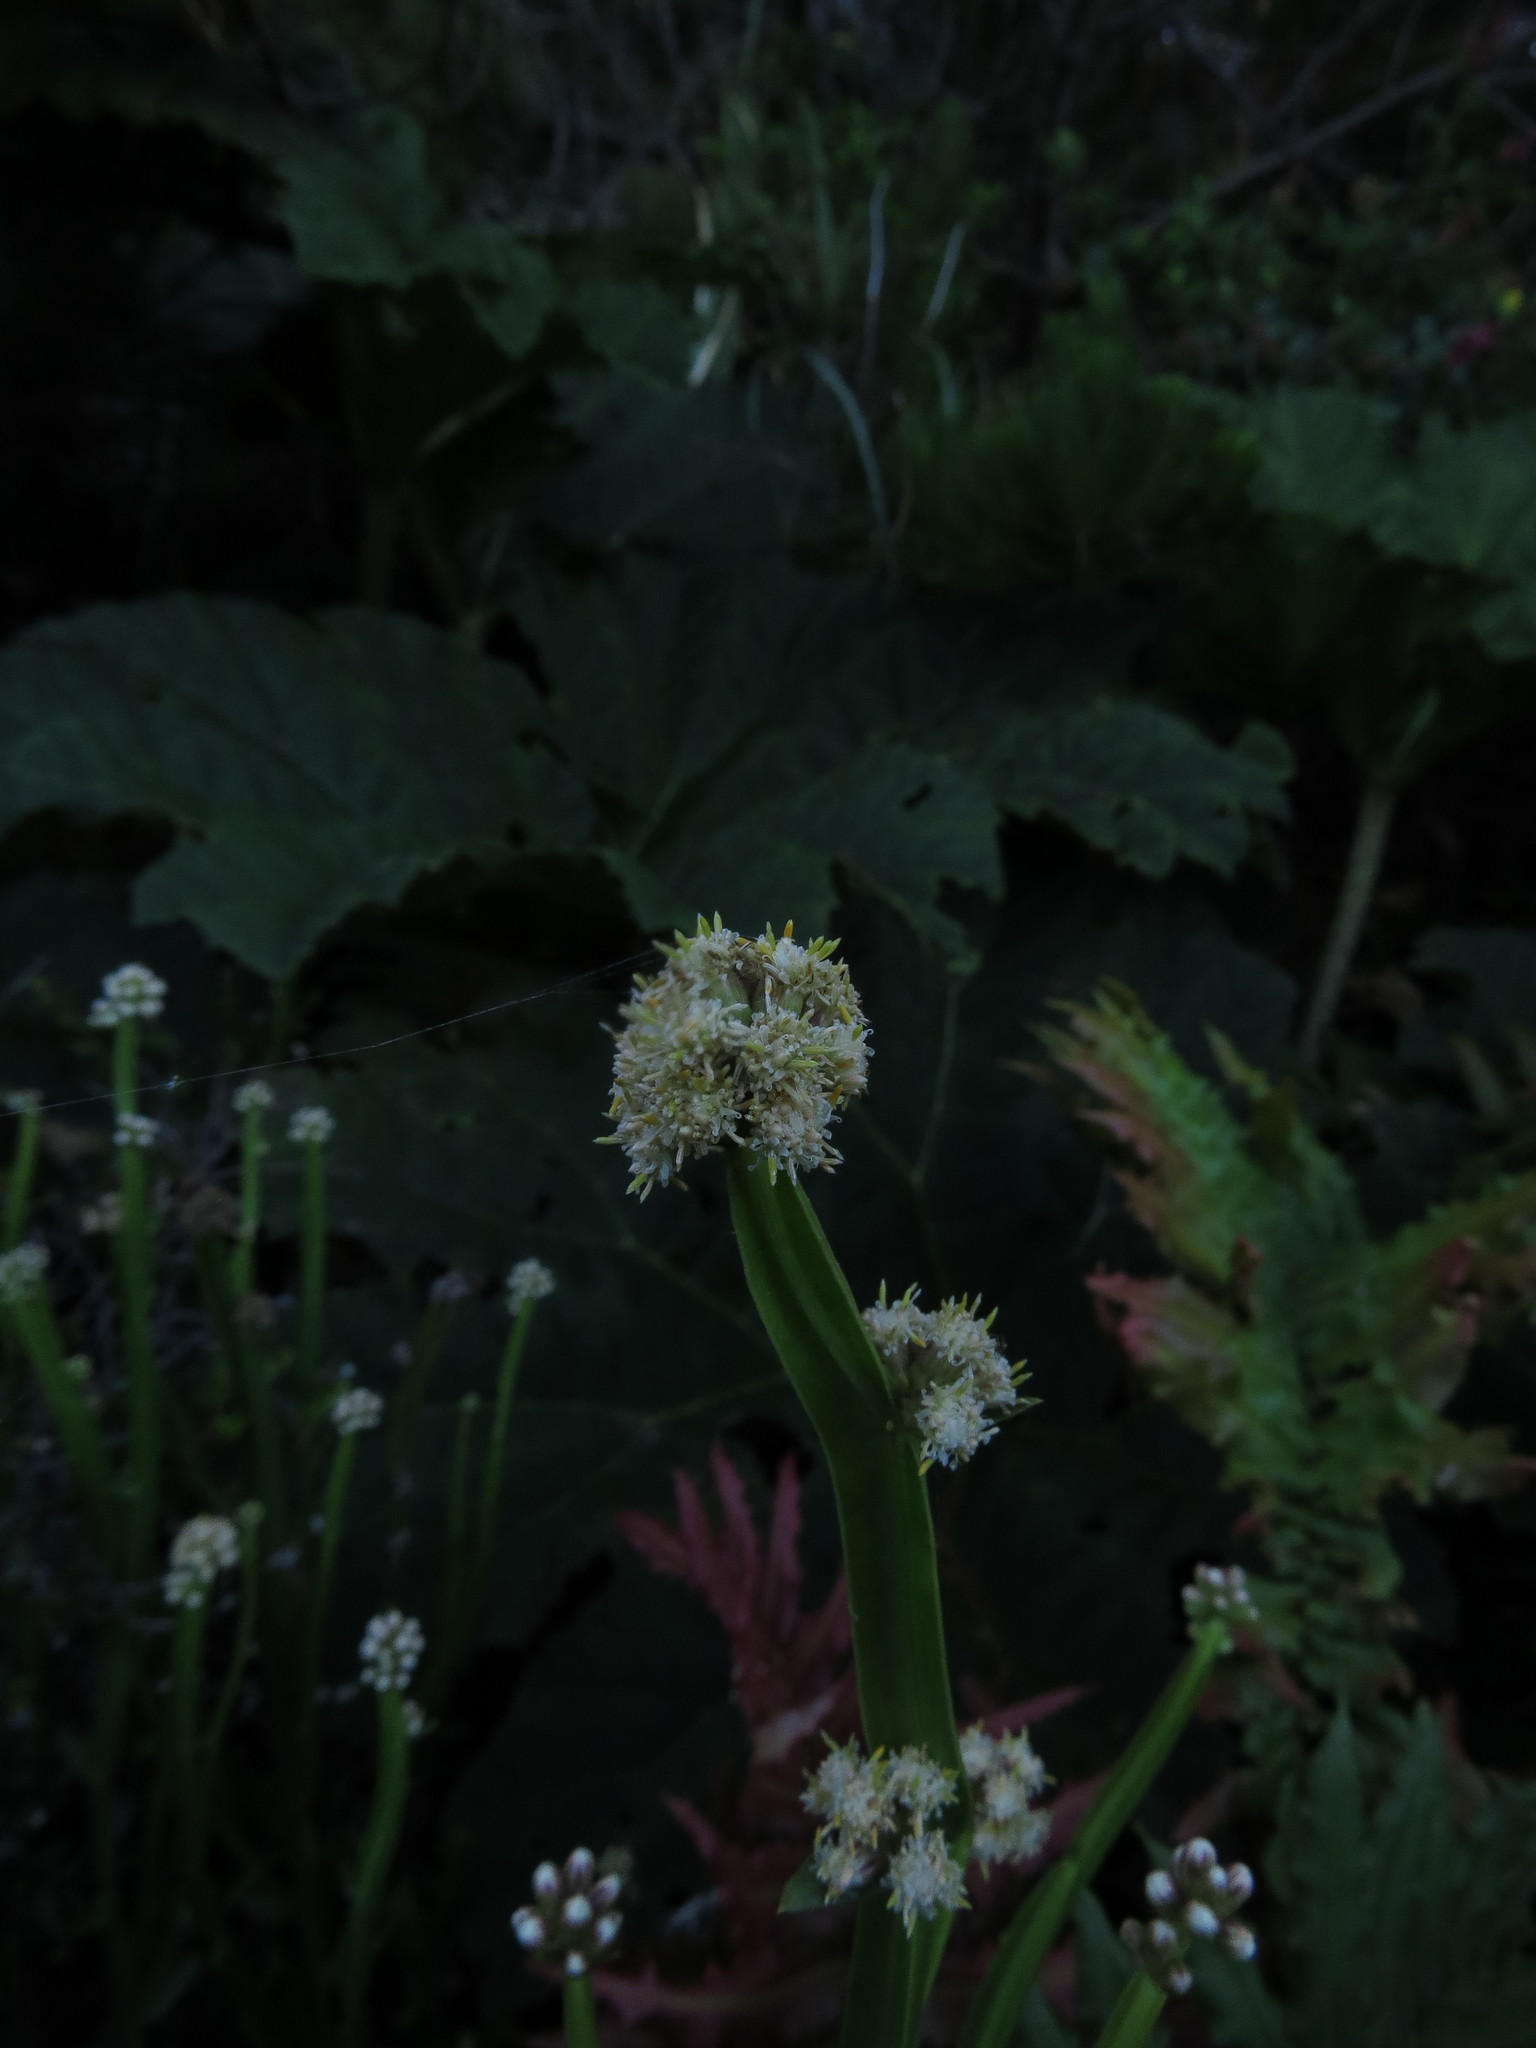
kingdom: Plantae
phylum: Tracheophyta
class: Magnoliopsida
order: Asterales
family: Asteraceae
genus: Baccharis
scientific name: Baccharis sagittalis
